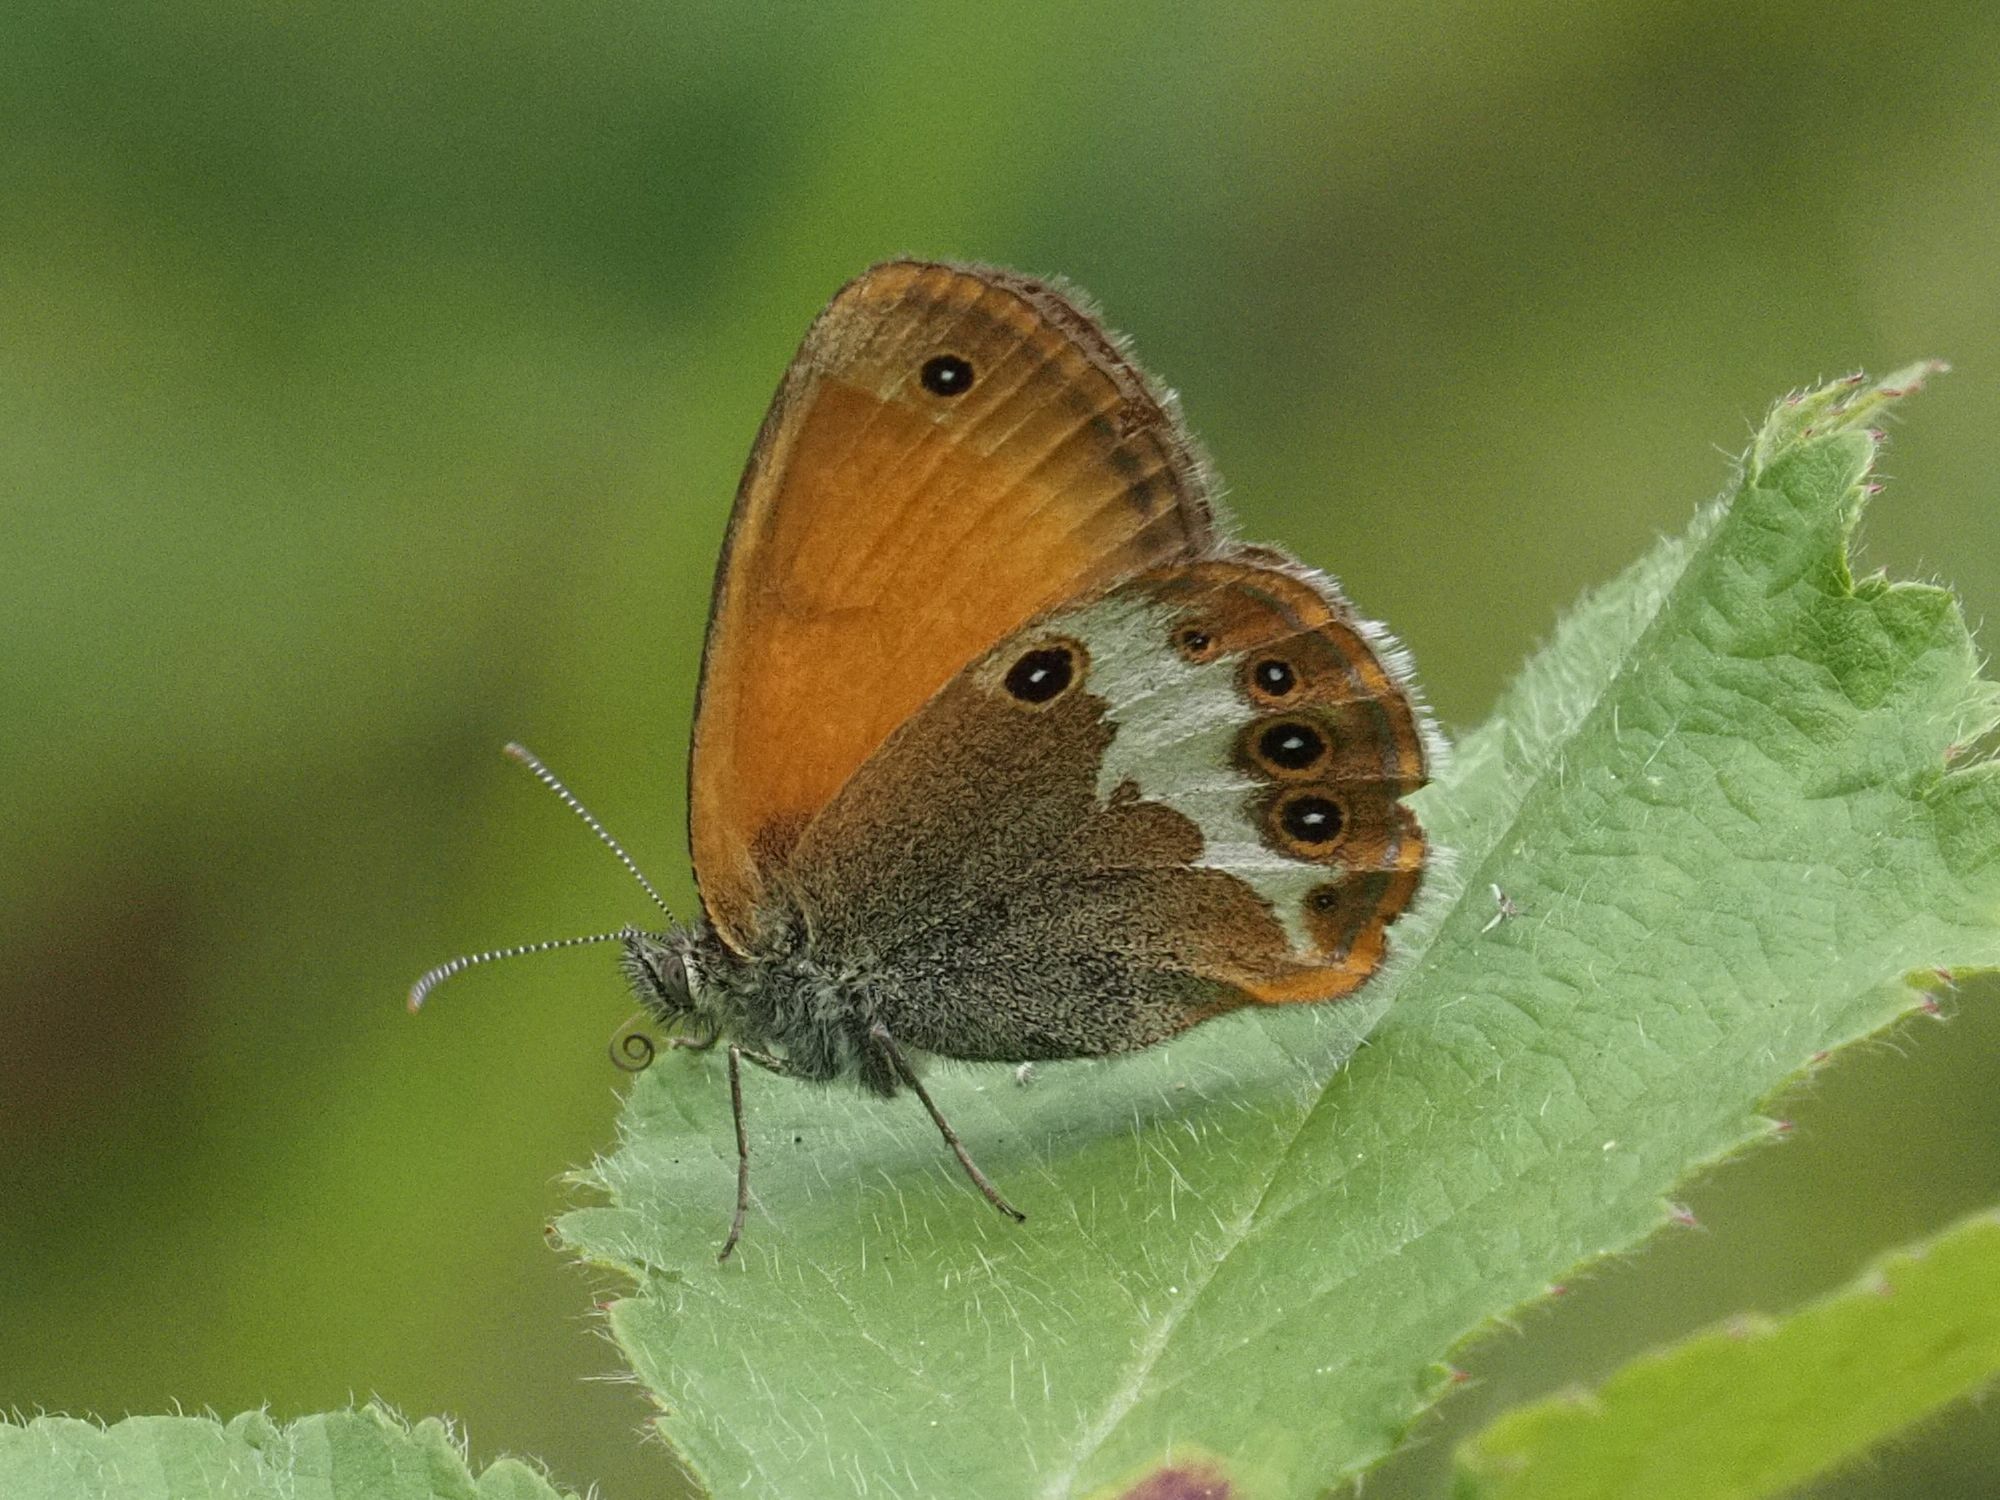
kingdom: Animalia
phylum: Arthropoda
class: Insecta
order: Lepidoptera
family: Nymphalidae
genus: Coenonympha
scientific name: Coenonympha arcania
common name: Pearly heath
